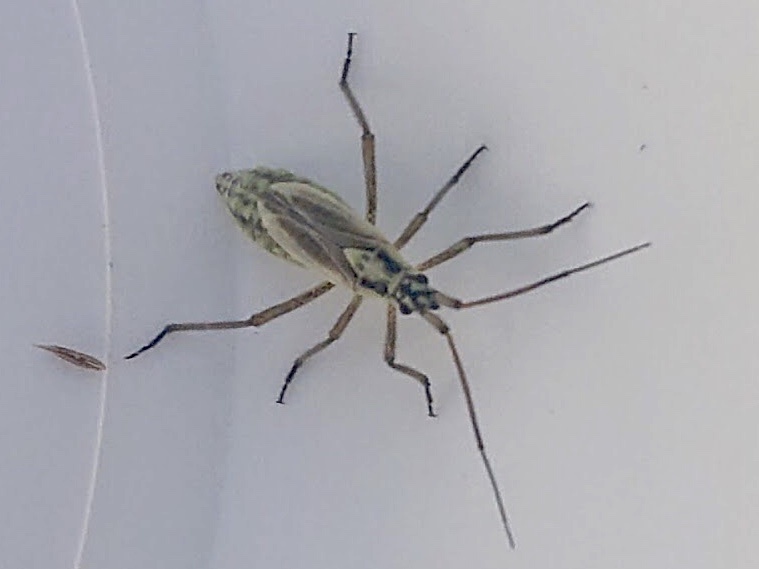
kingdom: Animalia
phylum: Arthropoda
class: Insecta
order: Hemiptera
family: Miridae
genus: Leptopterna
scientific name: Leptopterna dolabrata
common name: Meadow plant bug
